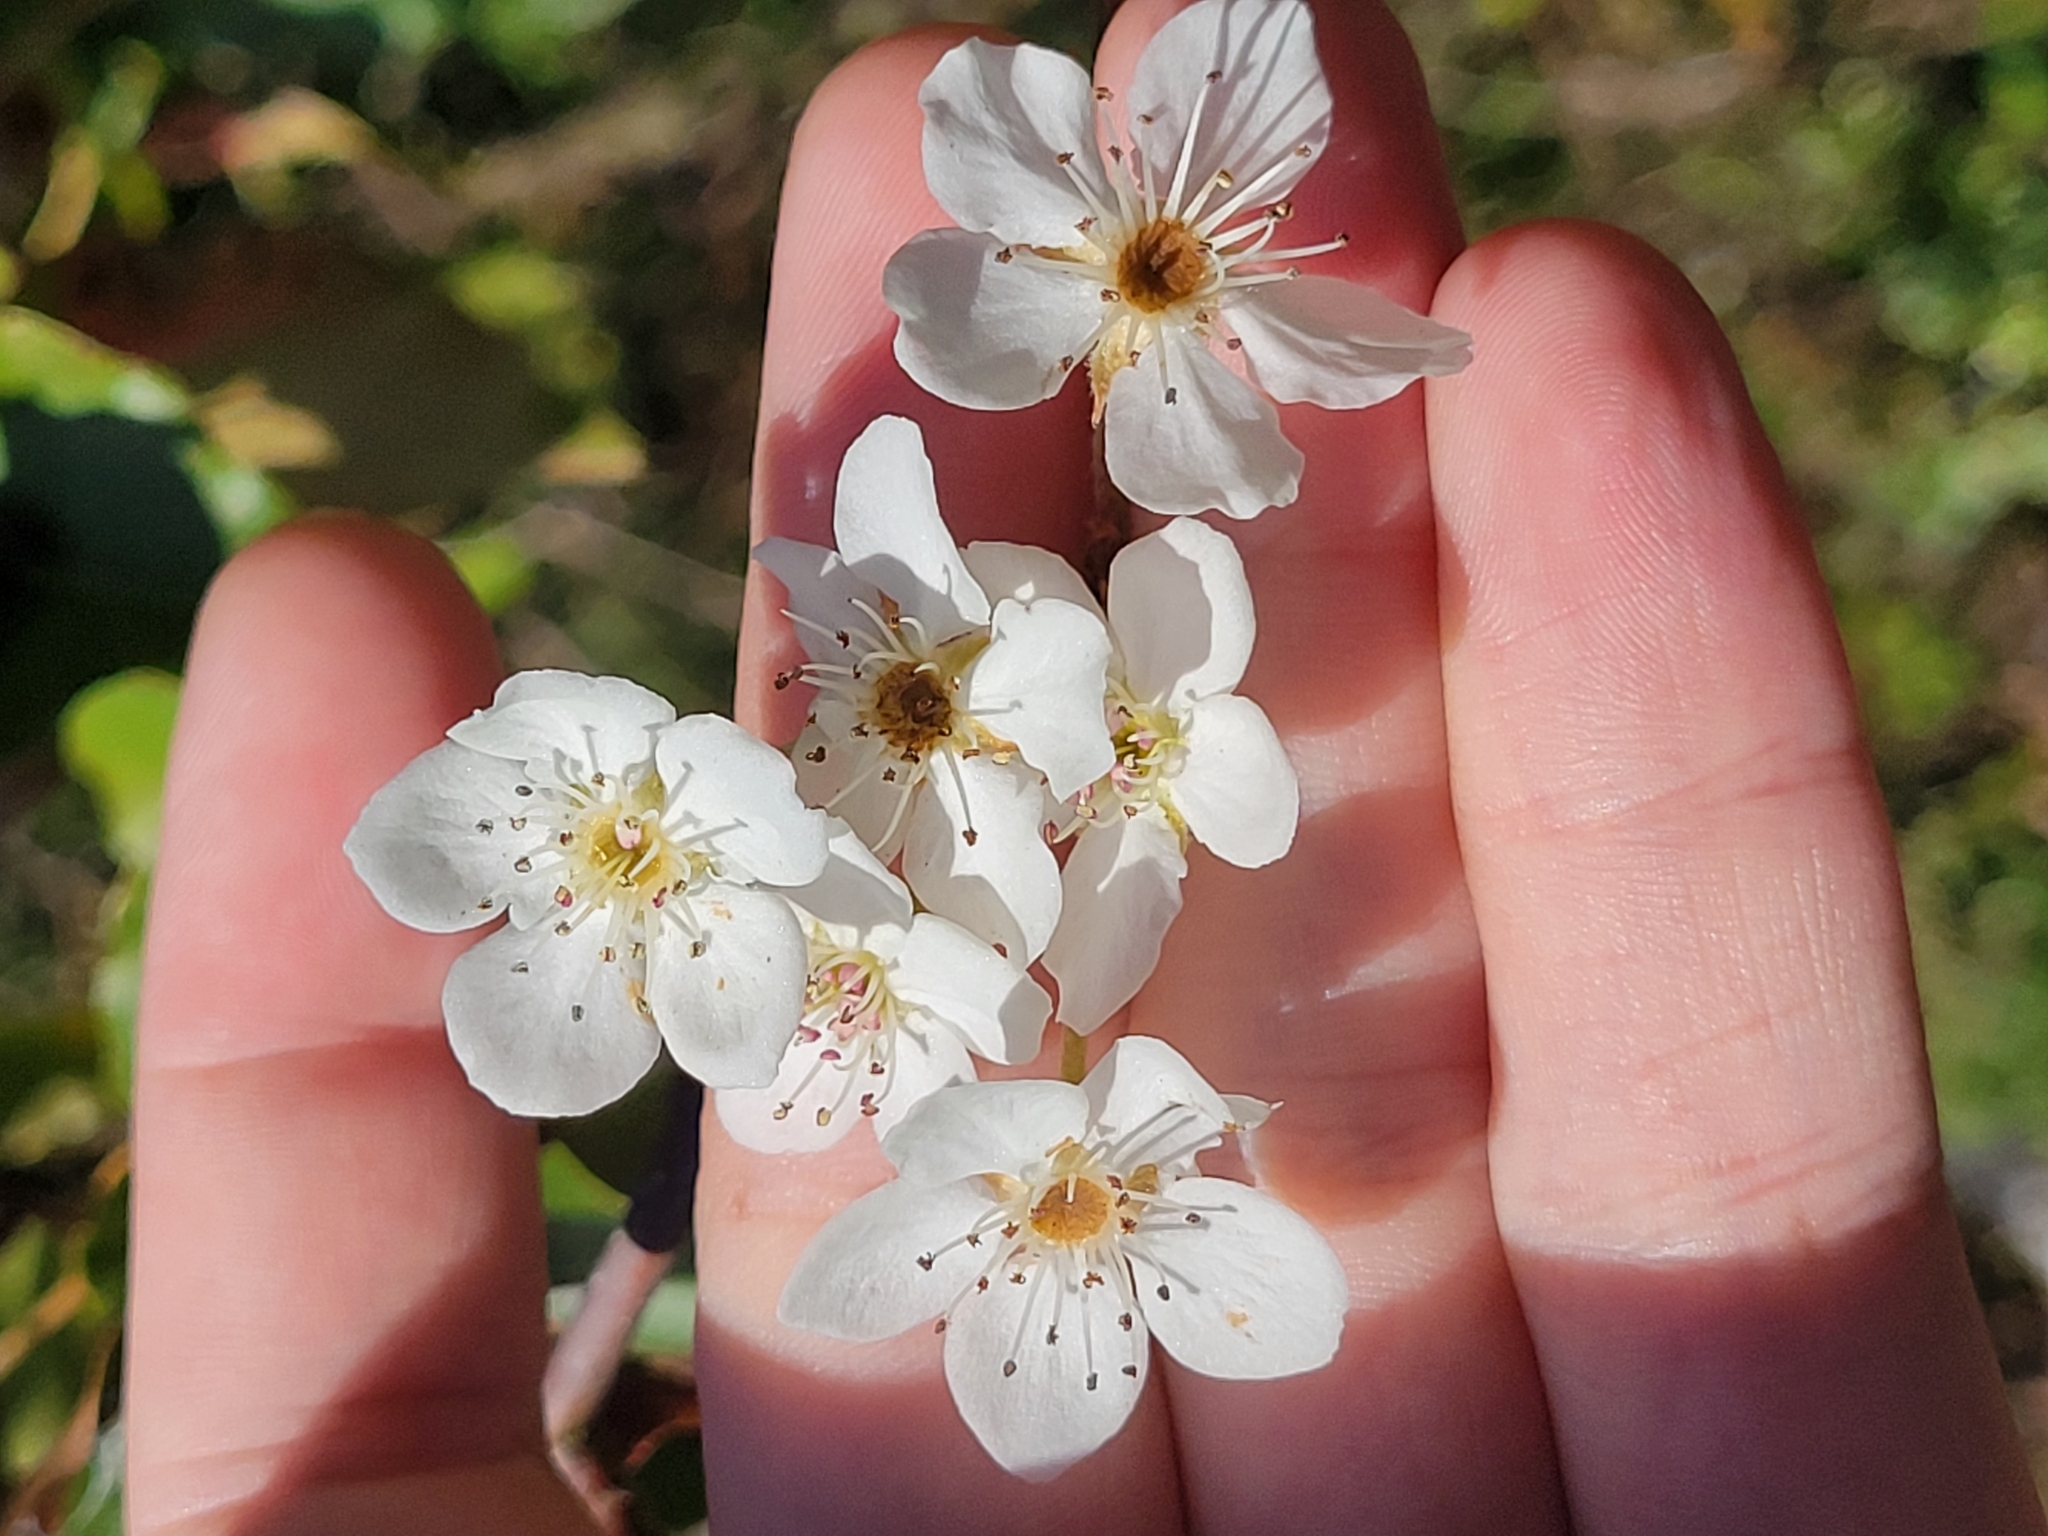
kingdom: Plantae
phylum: Tracheophyta
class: Magnoliopsida
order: Rosales
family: Rosaceae
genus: Pyrus
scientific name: Pyrus calleryana
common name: Callery pear
